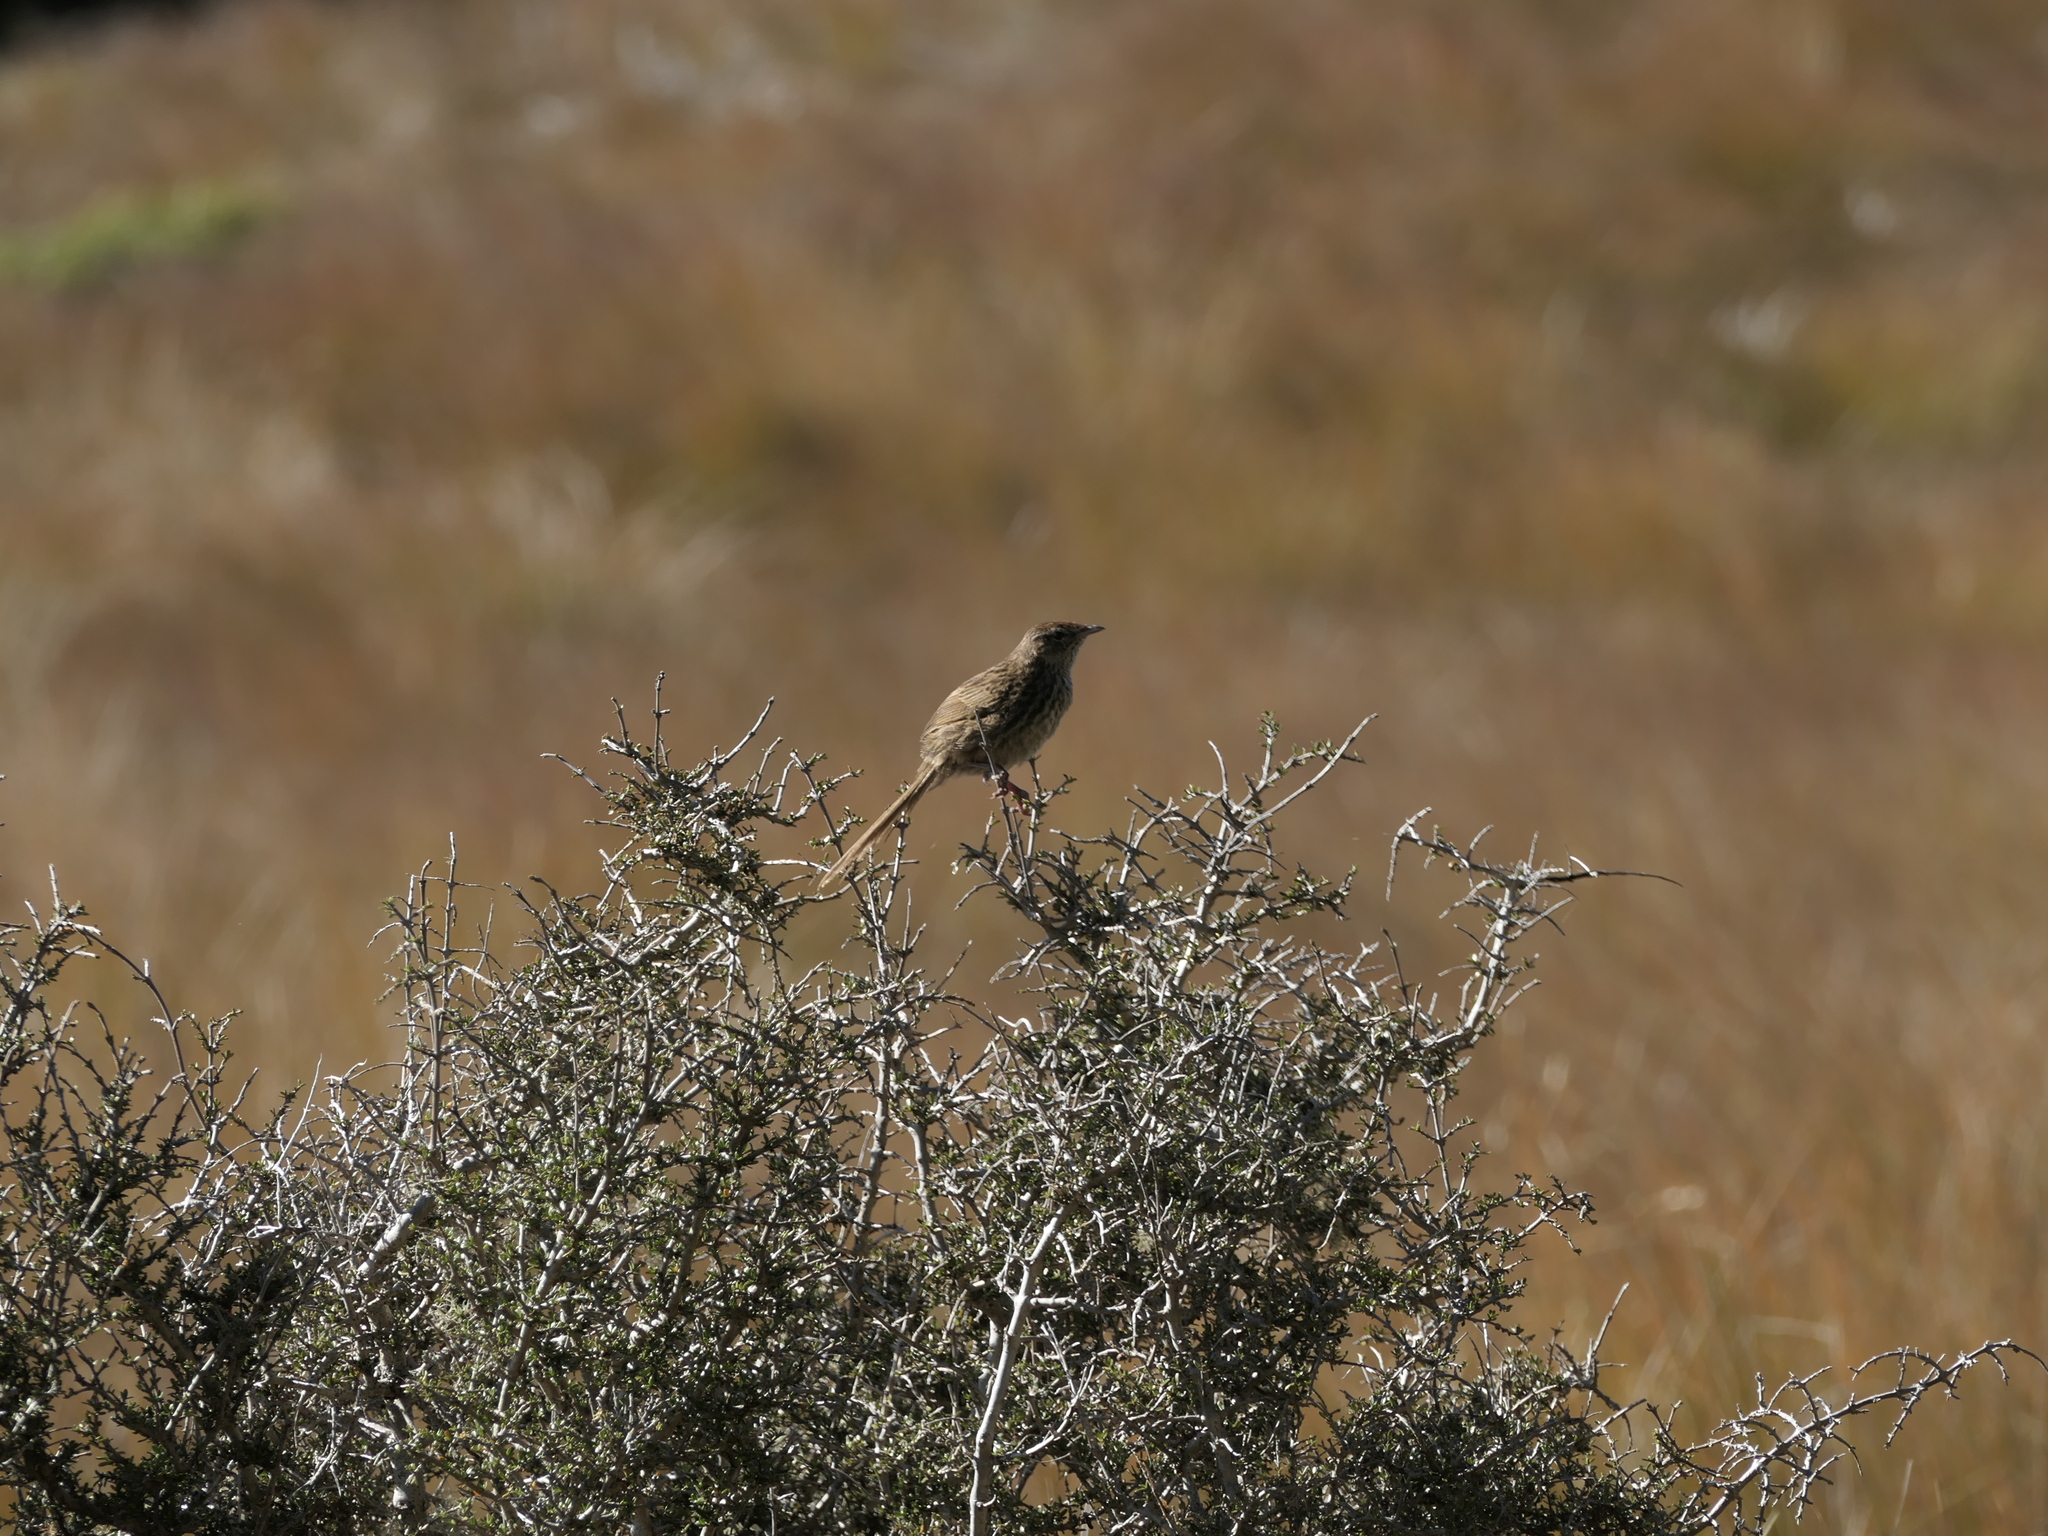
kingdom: Animalia
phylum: Chordata
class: Aves
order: Passeriformes
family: Locustellidae
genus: Poodytes
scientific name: Poodytes punctatus
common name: New zealand fernbird
